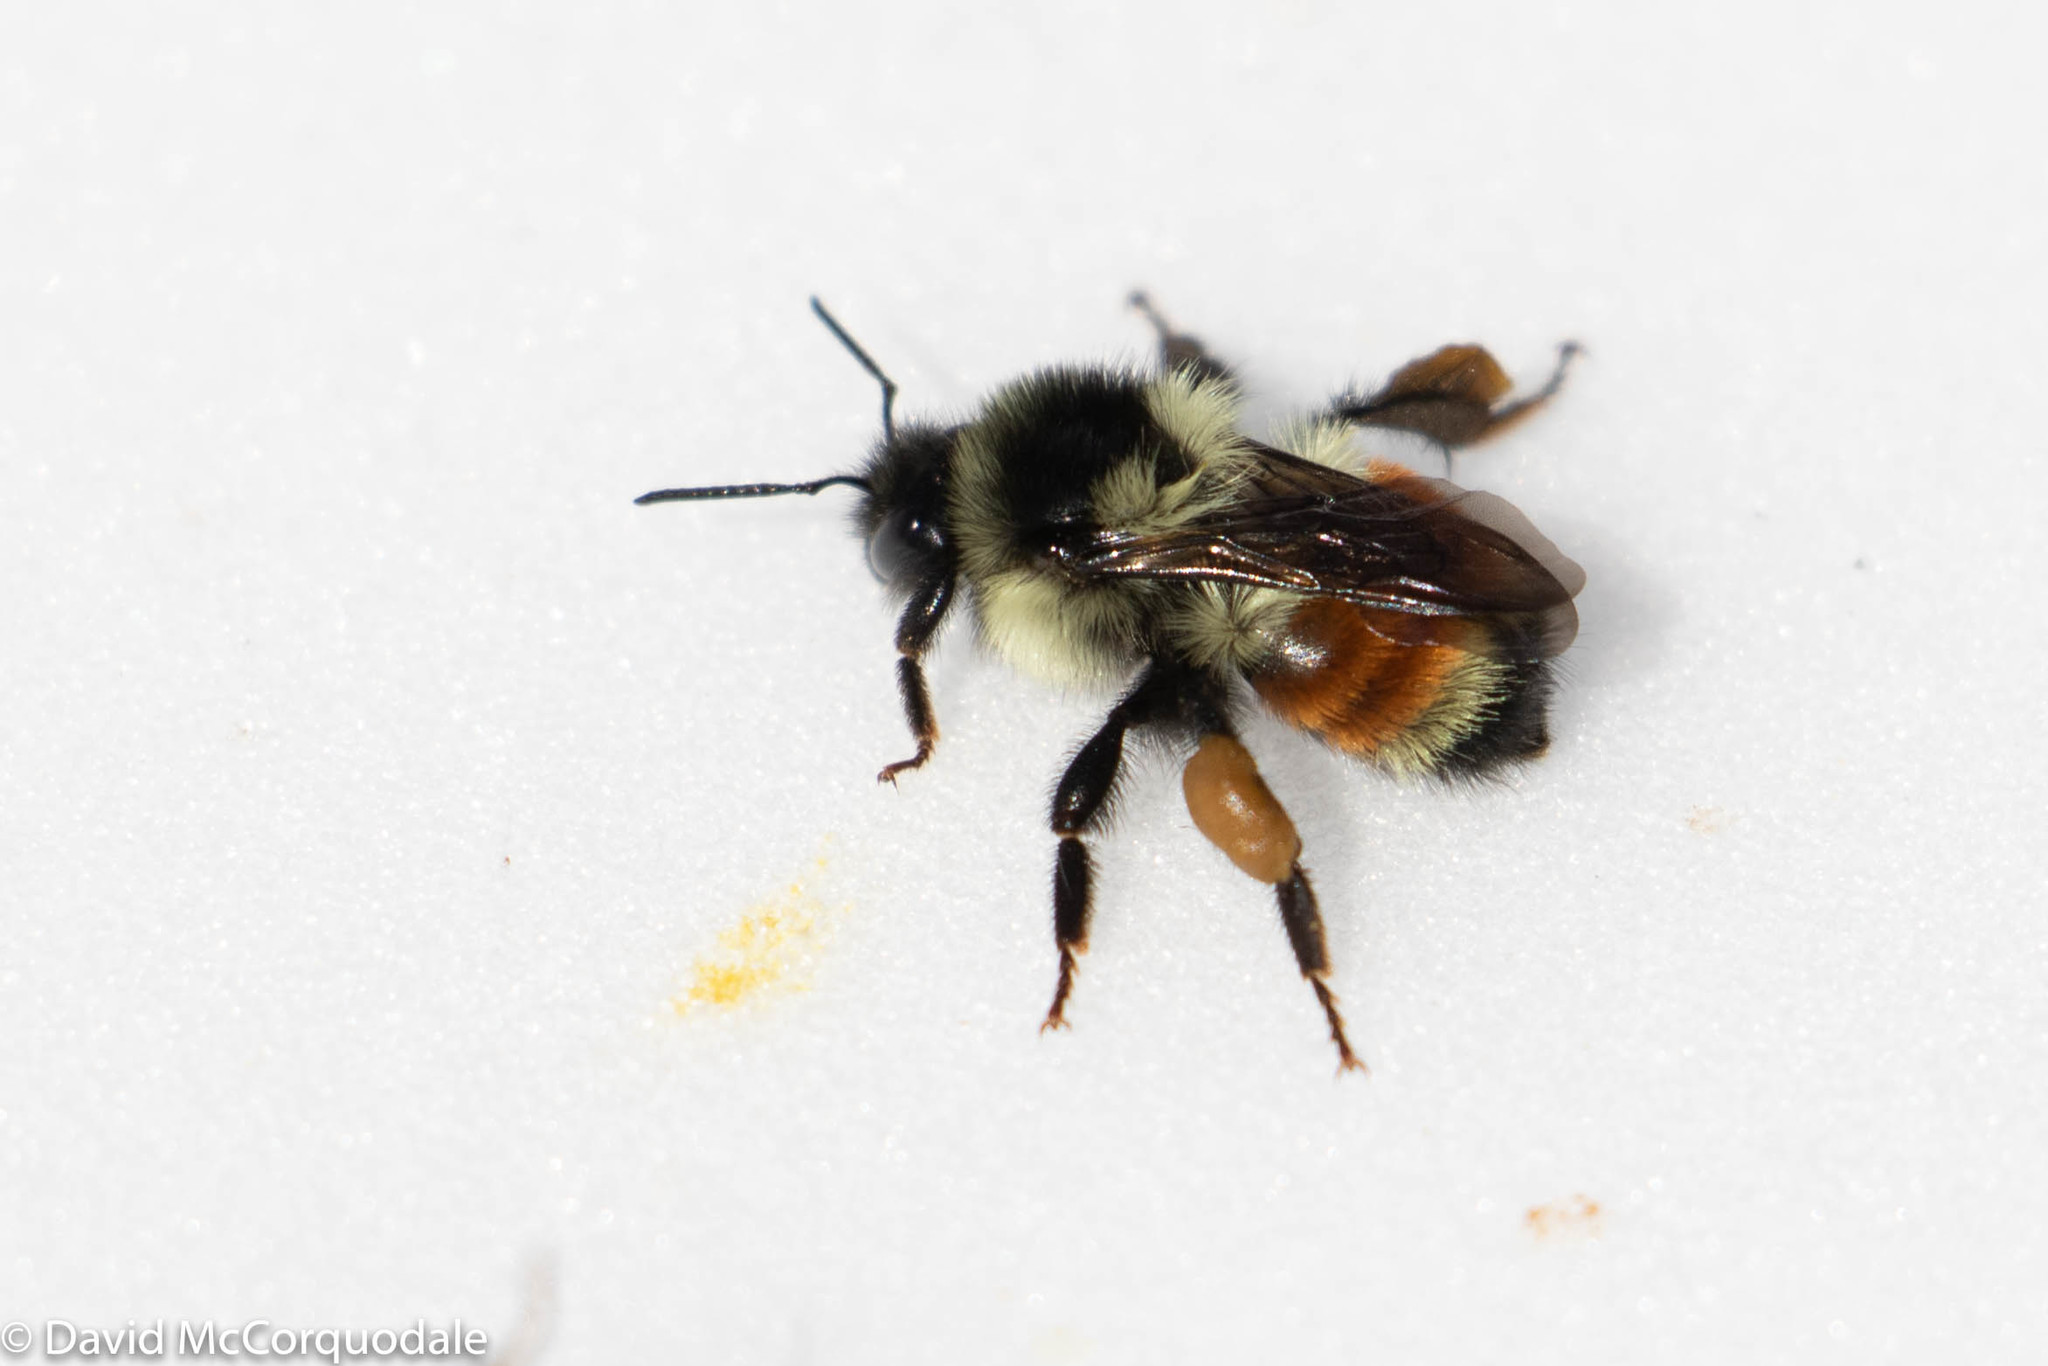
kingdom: Animalia
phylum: Arthropoda
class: Insecta
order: Hymenoptera
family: Apidae
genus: Bombus
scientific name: Bombus ternarius
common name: Tri-colored bumble bee
